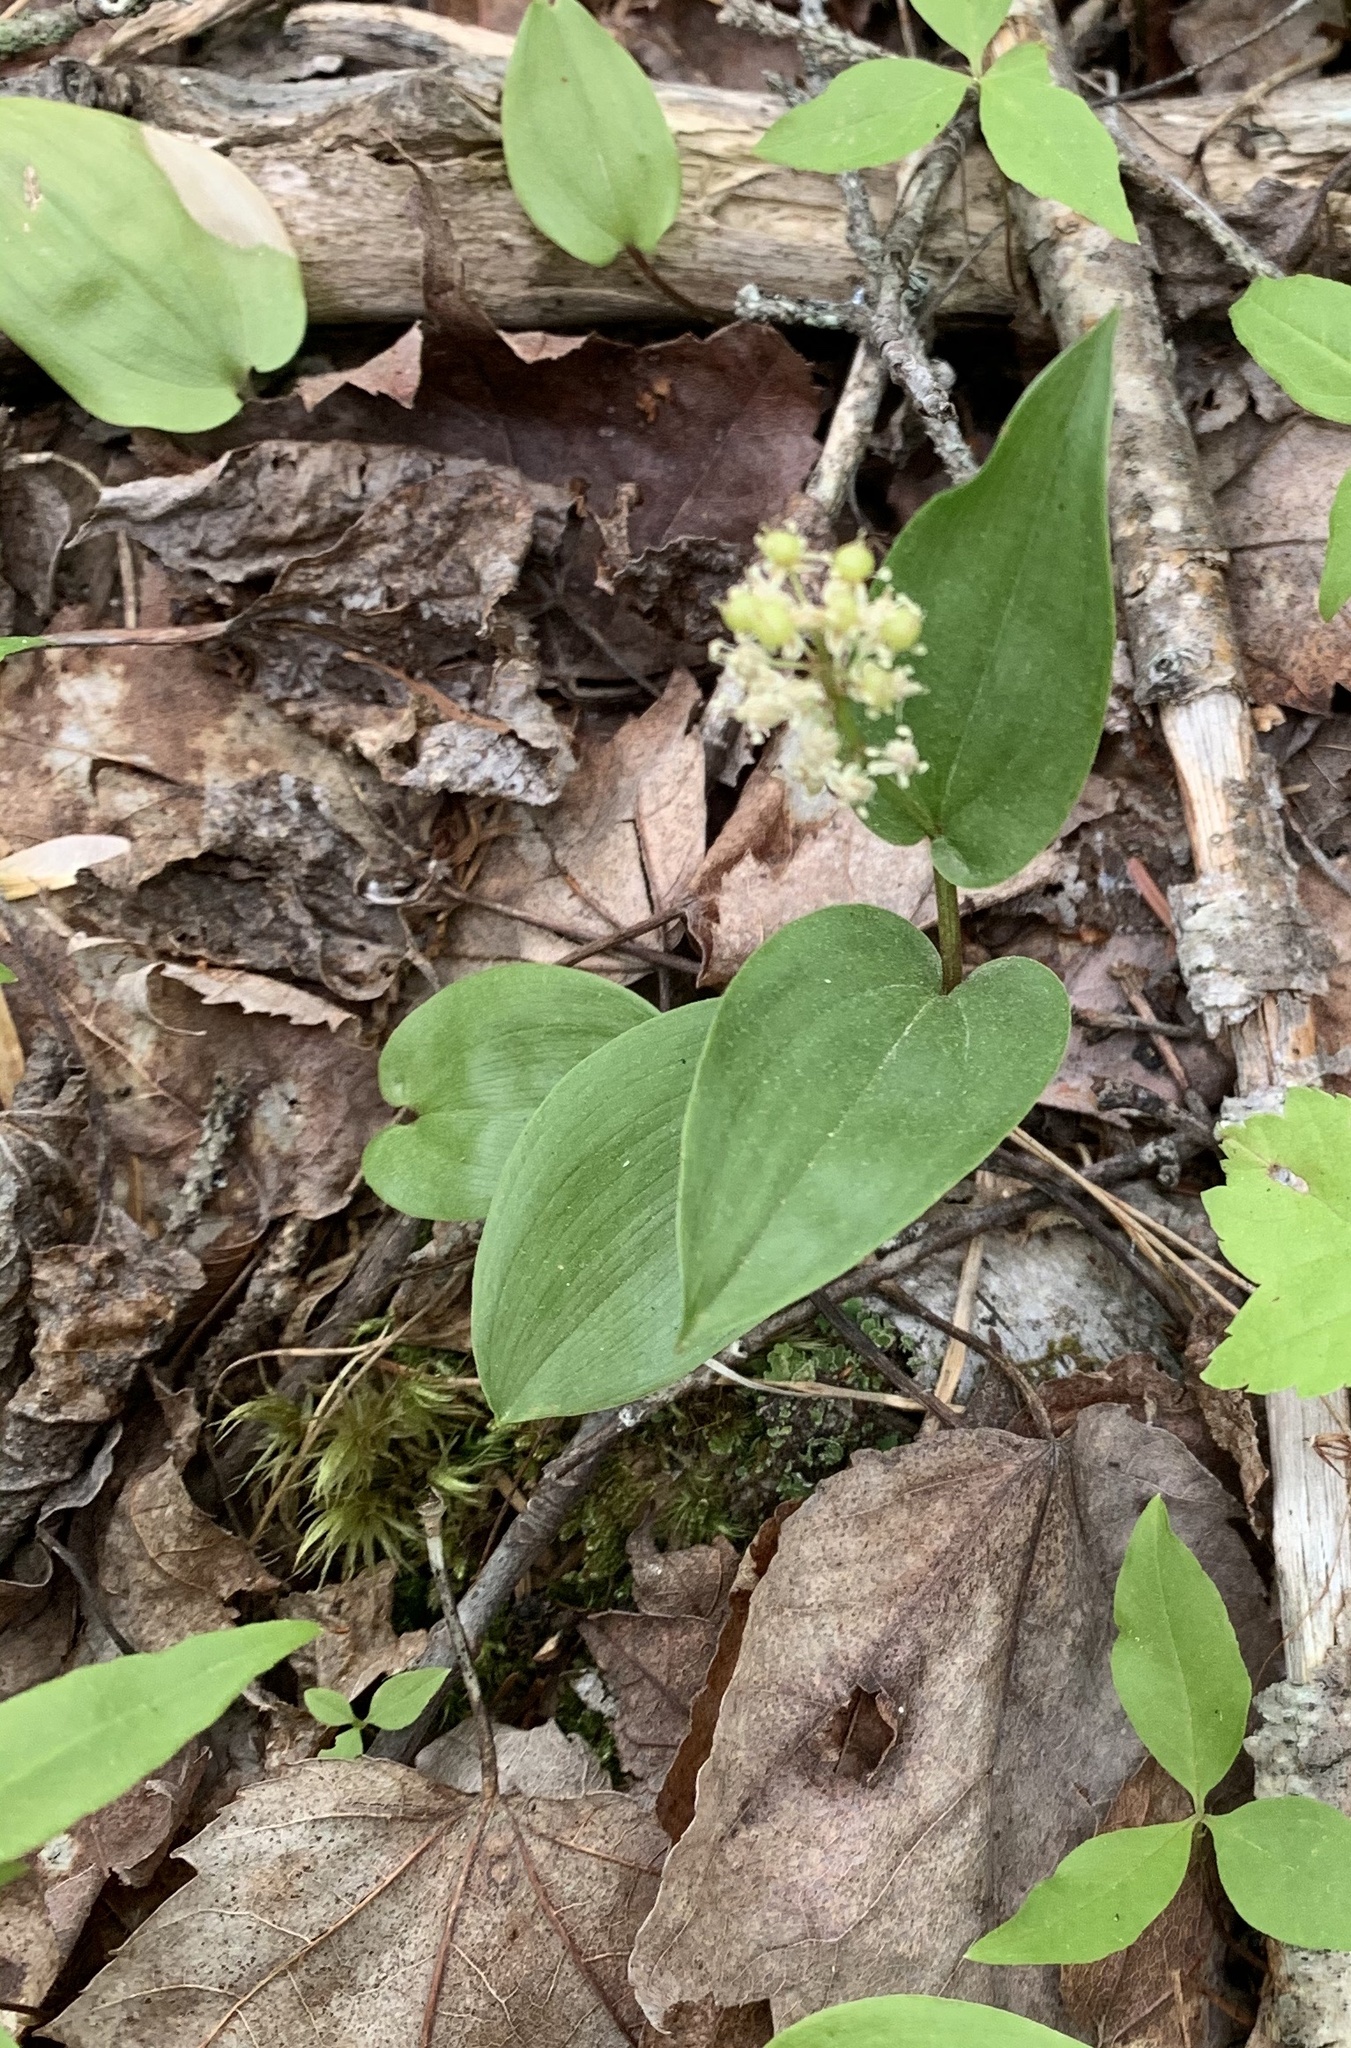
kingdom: Plantae
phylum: Tracheophyta
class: Liliopsida
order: Asparagales
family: Asparagaceae
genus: Maianthemum
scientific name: Maianthemum canadense
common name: False lily-of-the-valley
